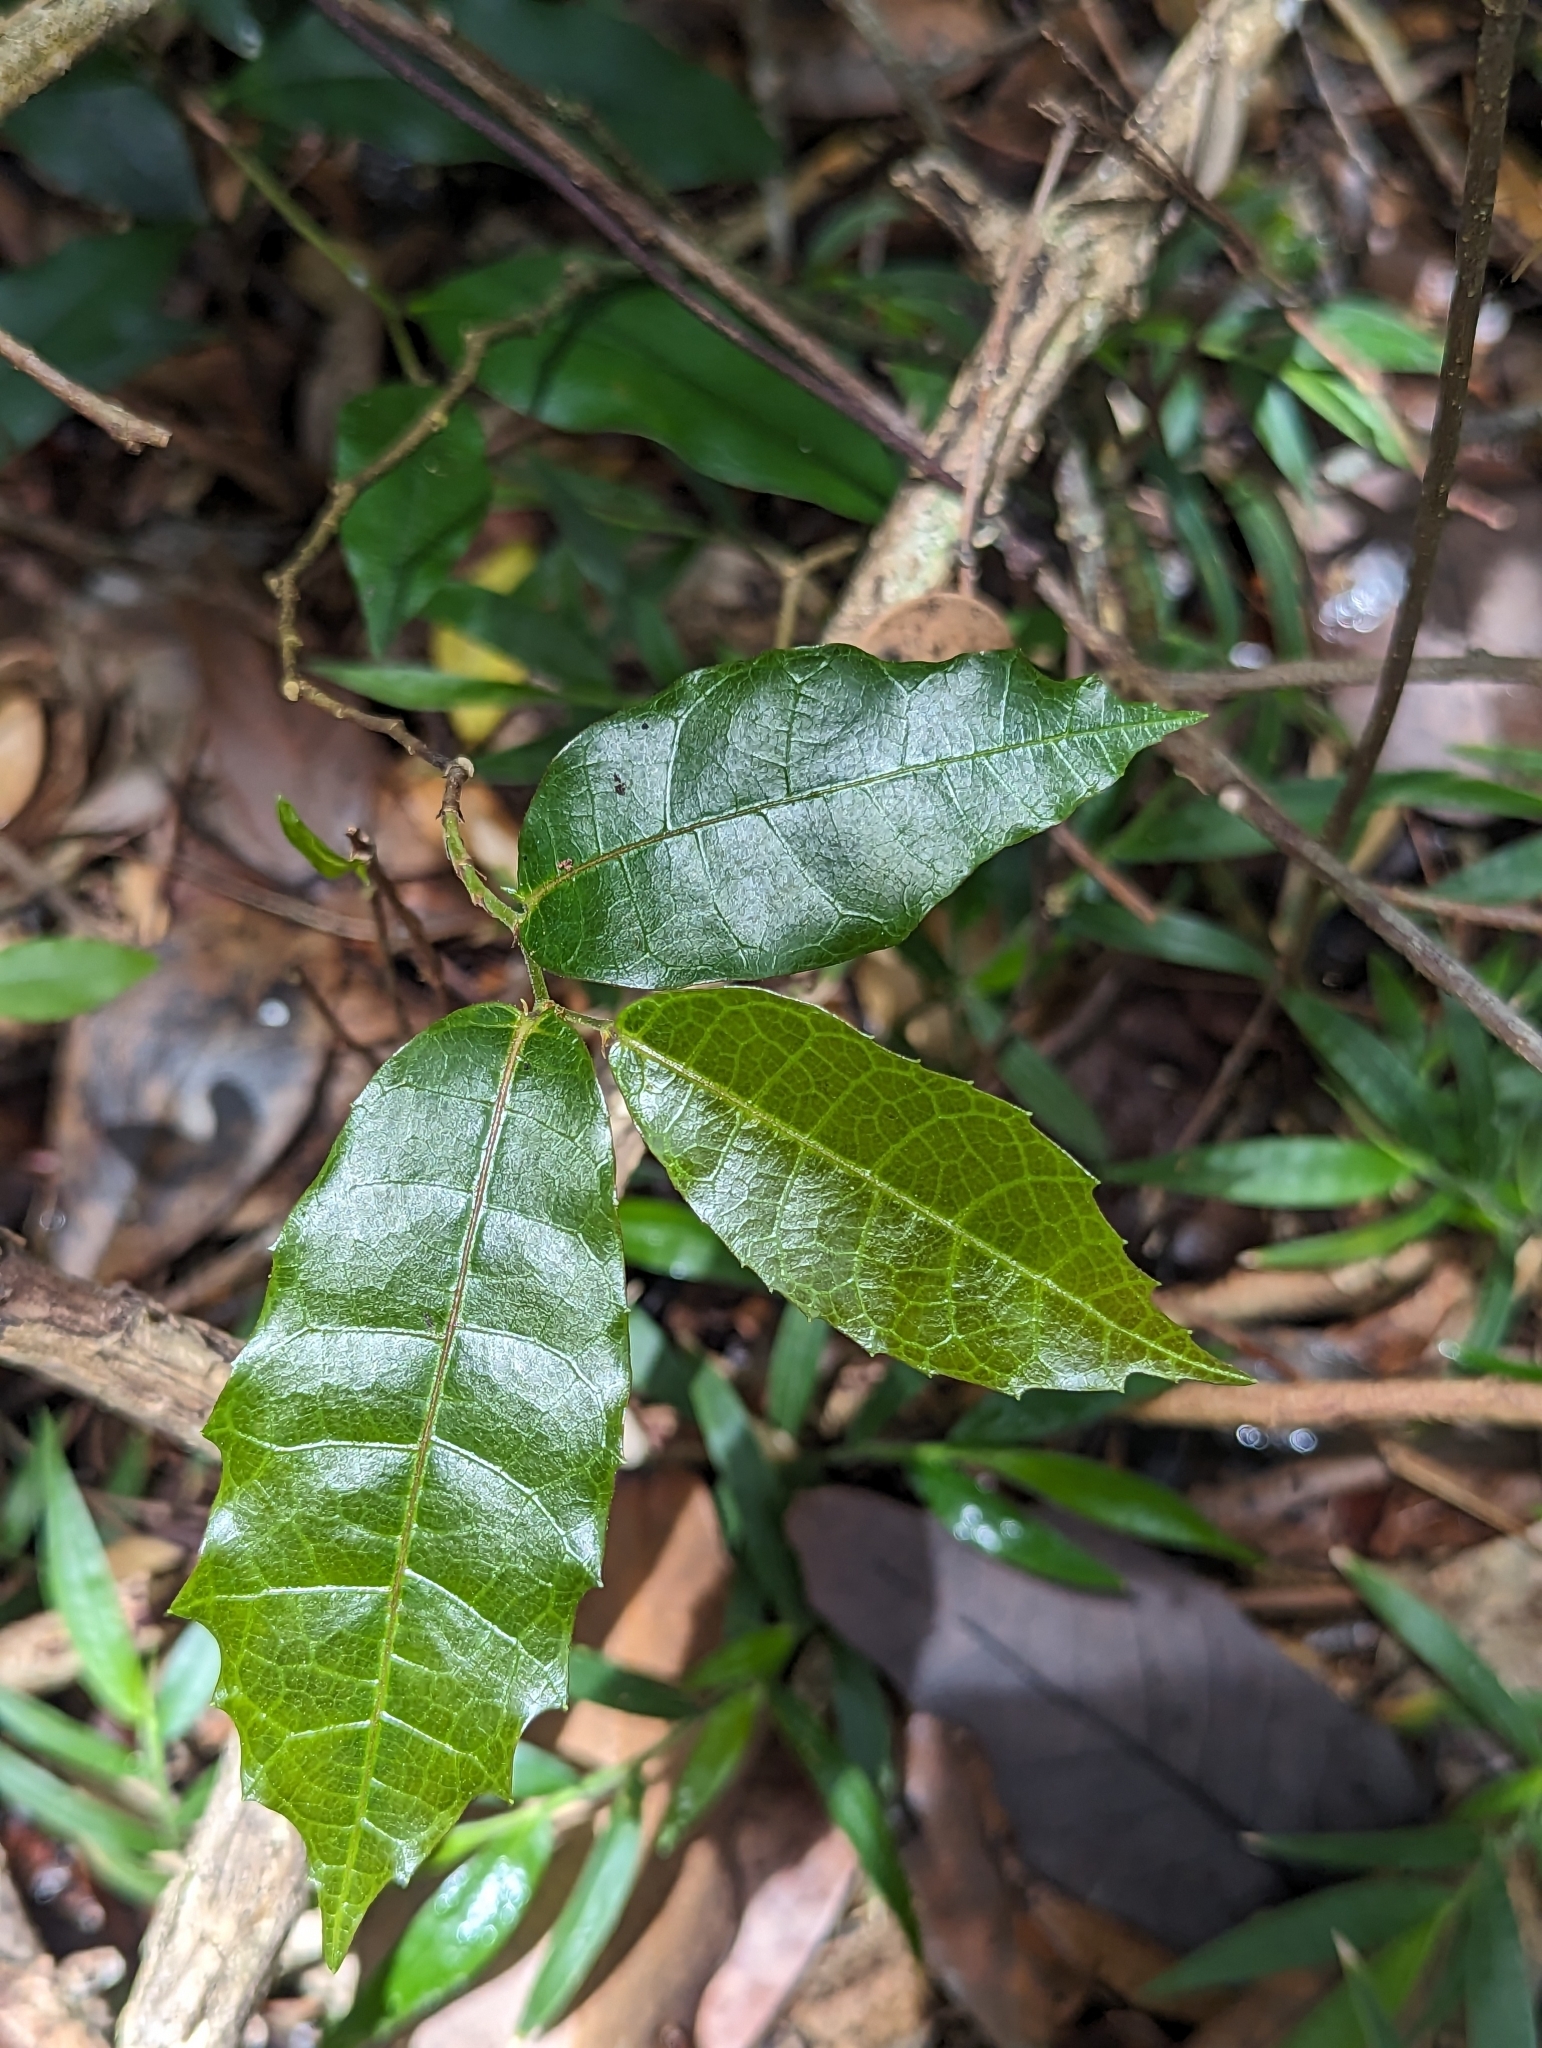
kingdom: Plantae
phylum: Tracheophyta
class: Magnoliopsida
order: Rosales
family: Moraceae
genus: Malaisia
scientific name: Malaisia scandens
